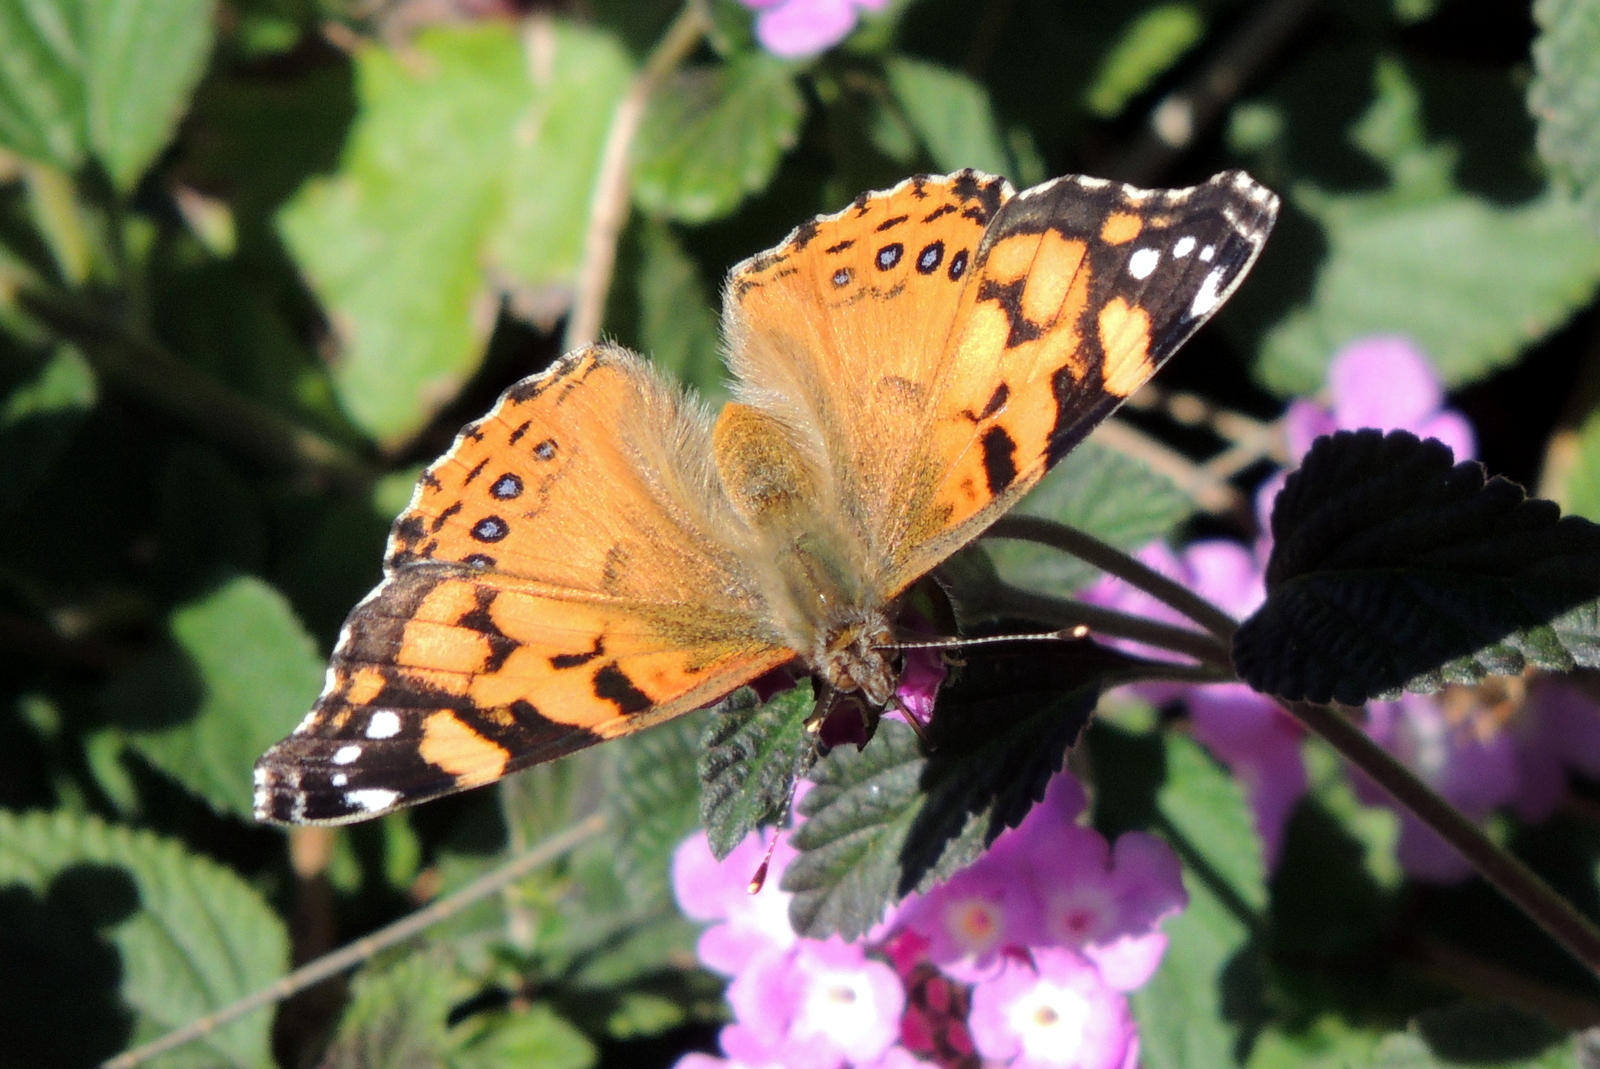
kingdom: Animalia
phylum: Arthropoda
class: Insecta
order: Lepidoptera
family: Nymphalidae
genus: Vanessa
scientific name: Vanessa annabella
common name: West coast lady
